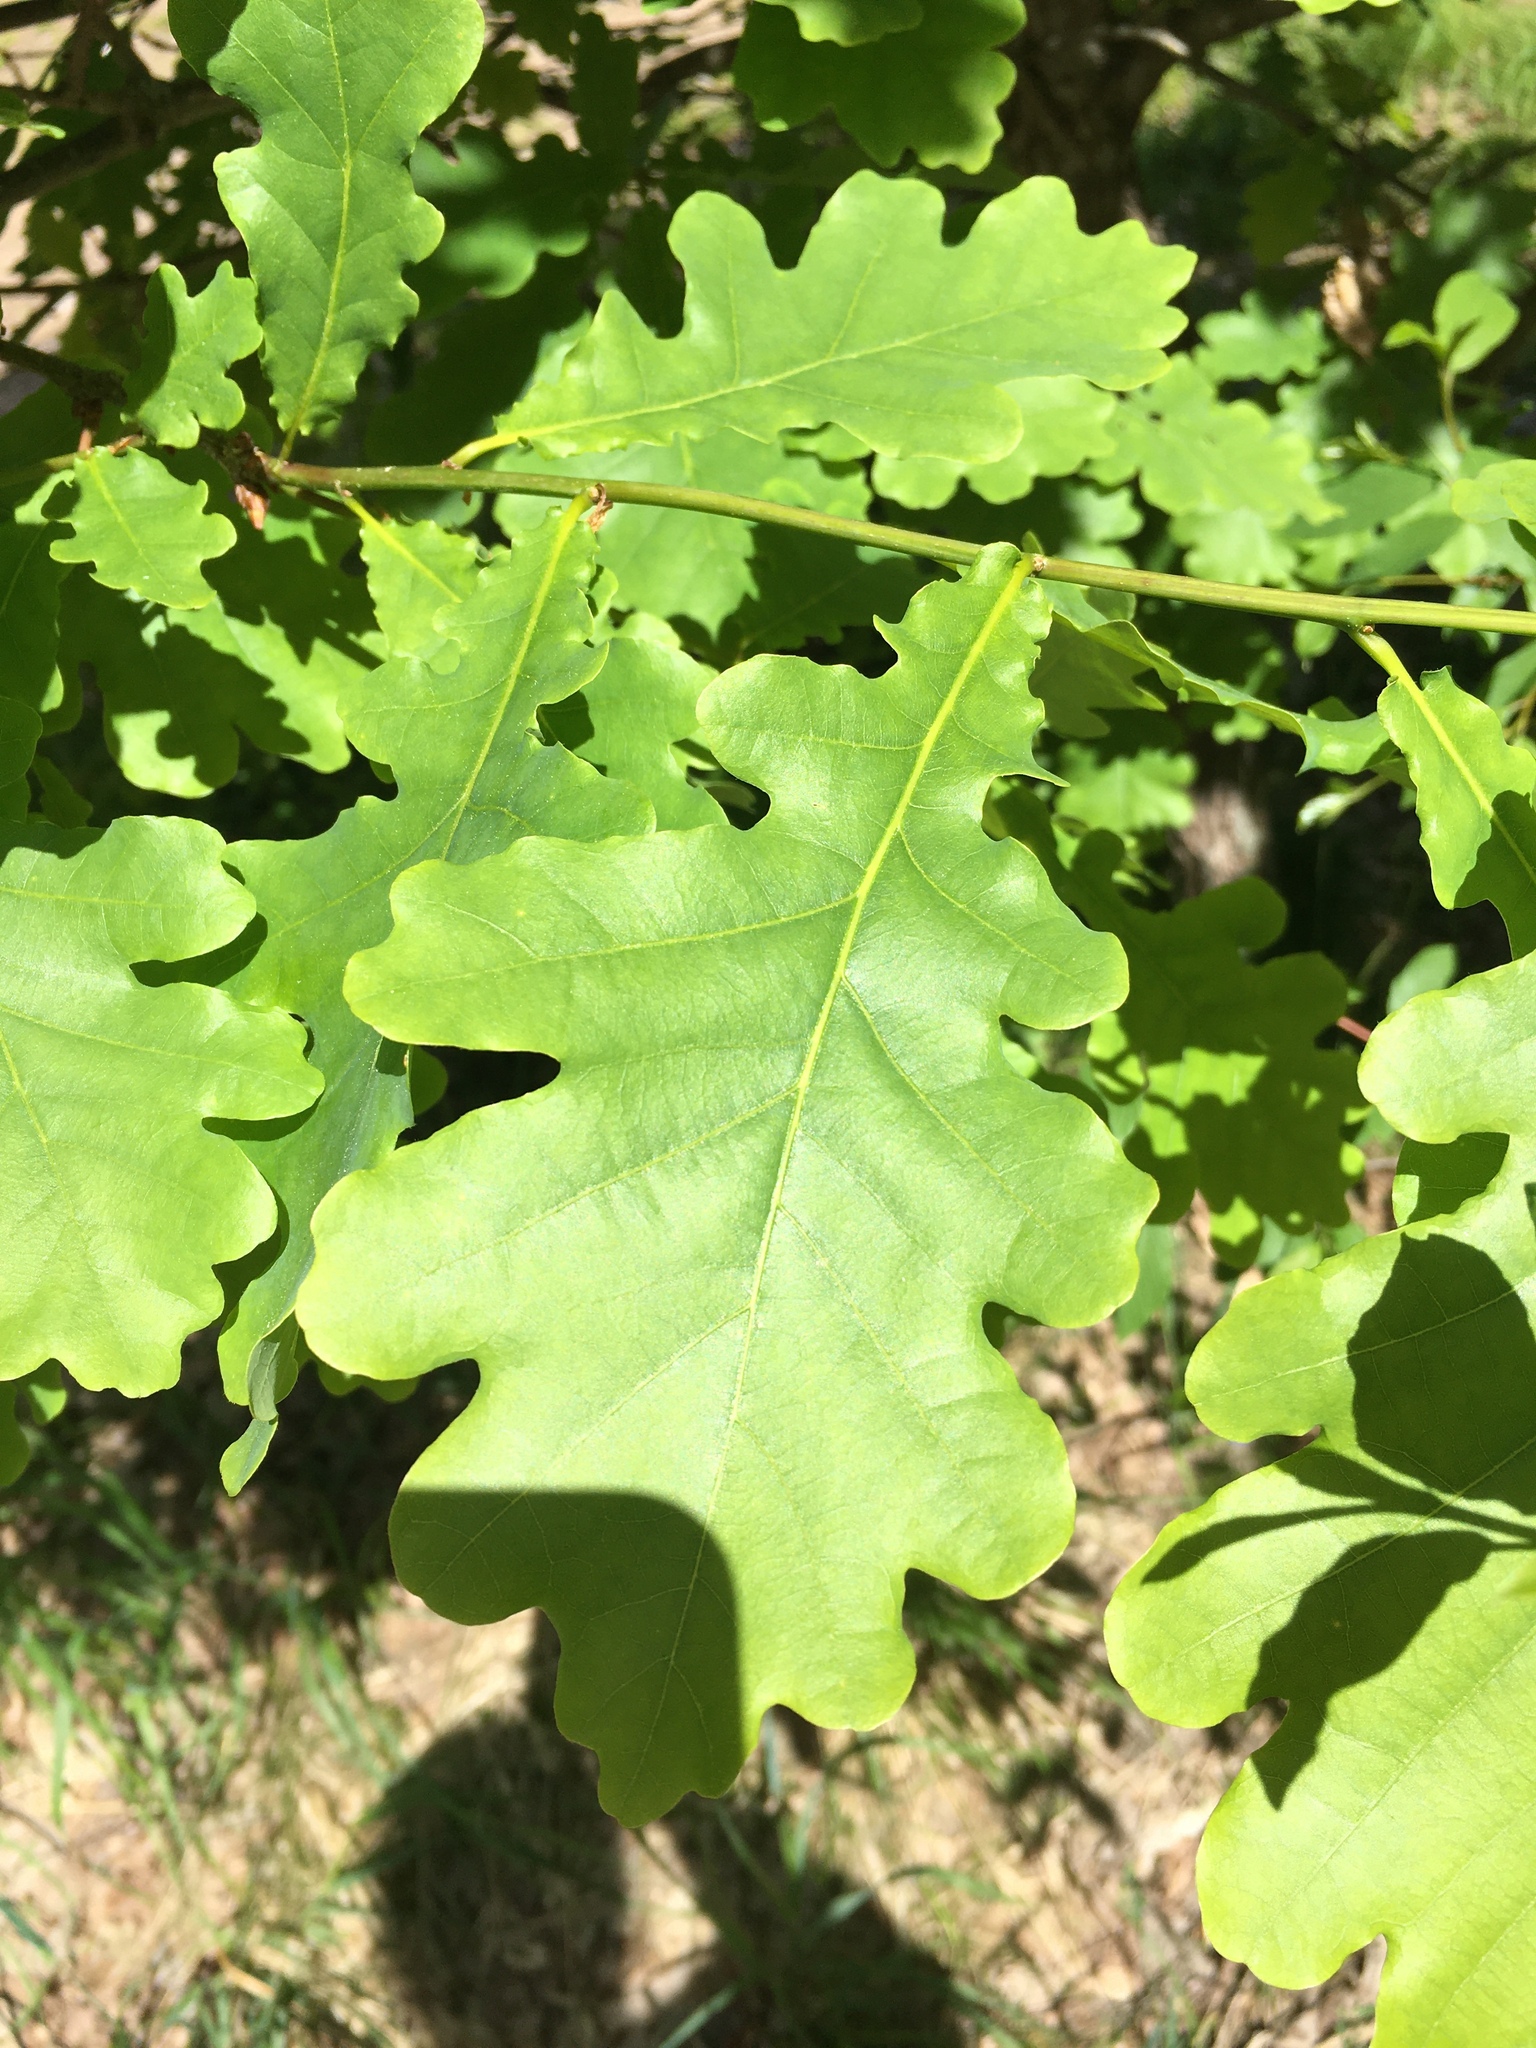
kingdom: Plantae
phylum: Tracheophyta
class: Magnoliopsida
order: Fagales
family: Fagaceae
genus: Quercus
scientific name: Quercus robur
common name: Pedunculate oak
